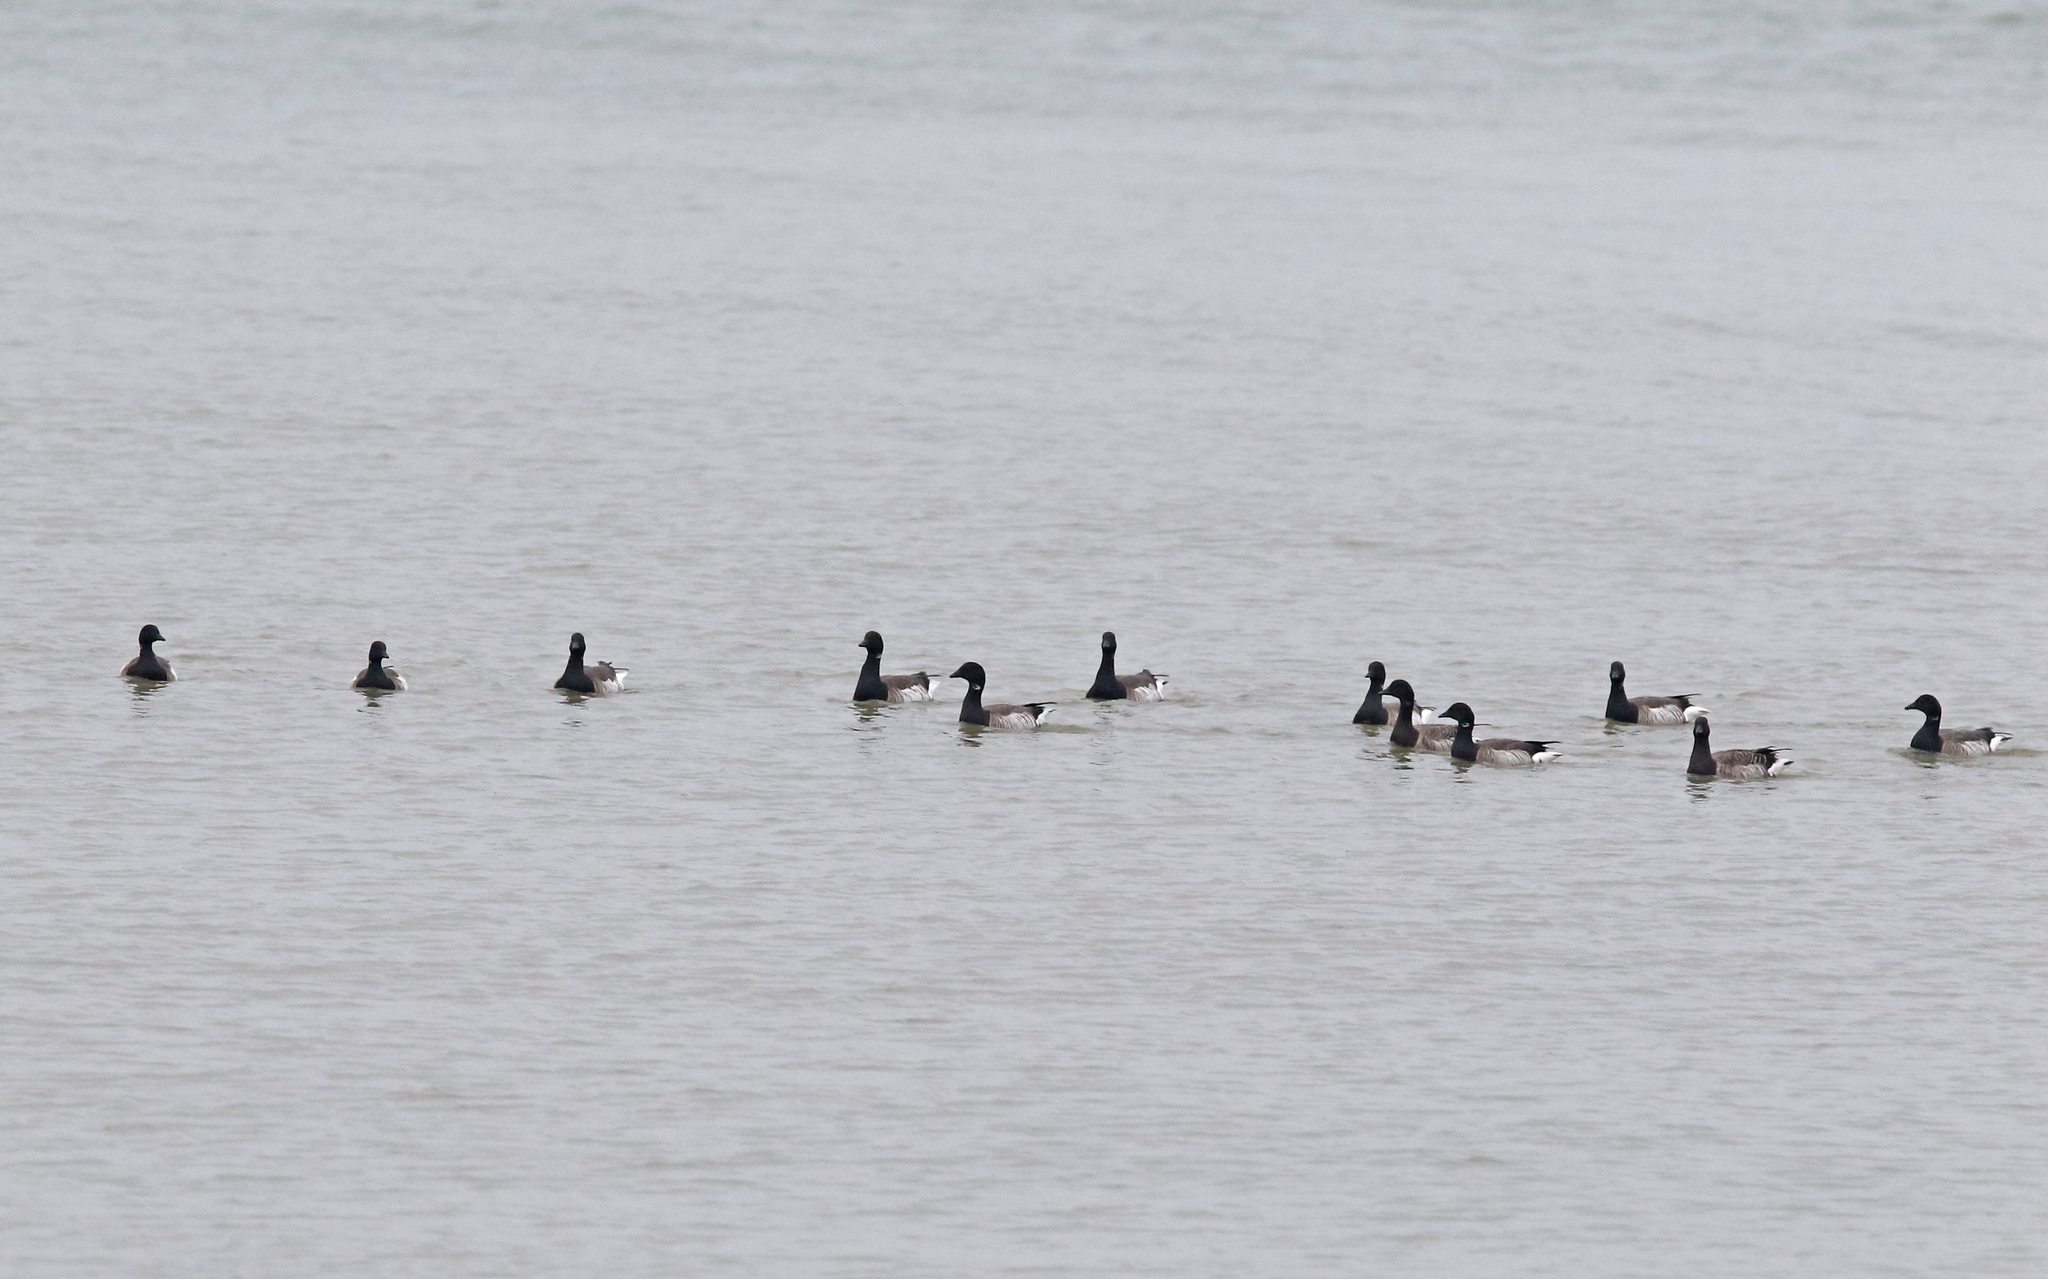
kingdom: Animalia
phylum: Chordata
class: Aves
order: Anseriformes
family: Anatidae
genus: Branta
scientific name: Branta bernicla
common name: Brant goose
